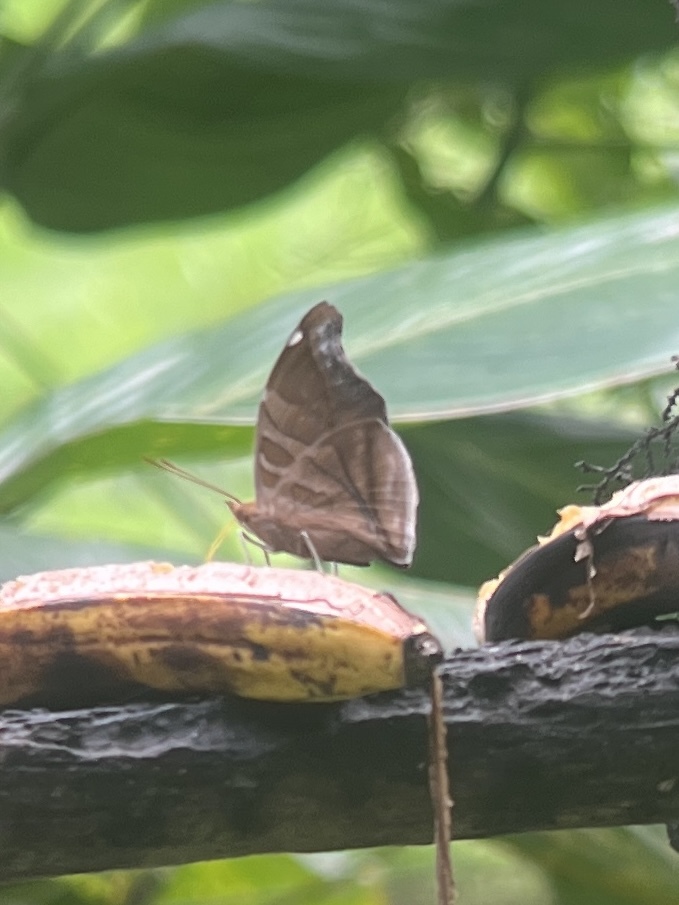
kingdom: Animalia
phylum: Arthropoda
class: Insecta
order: Lepidoptera
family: Nymphalidae
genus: Historis
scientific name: Historis odius
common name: Orion cecropian
